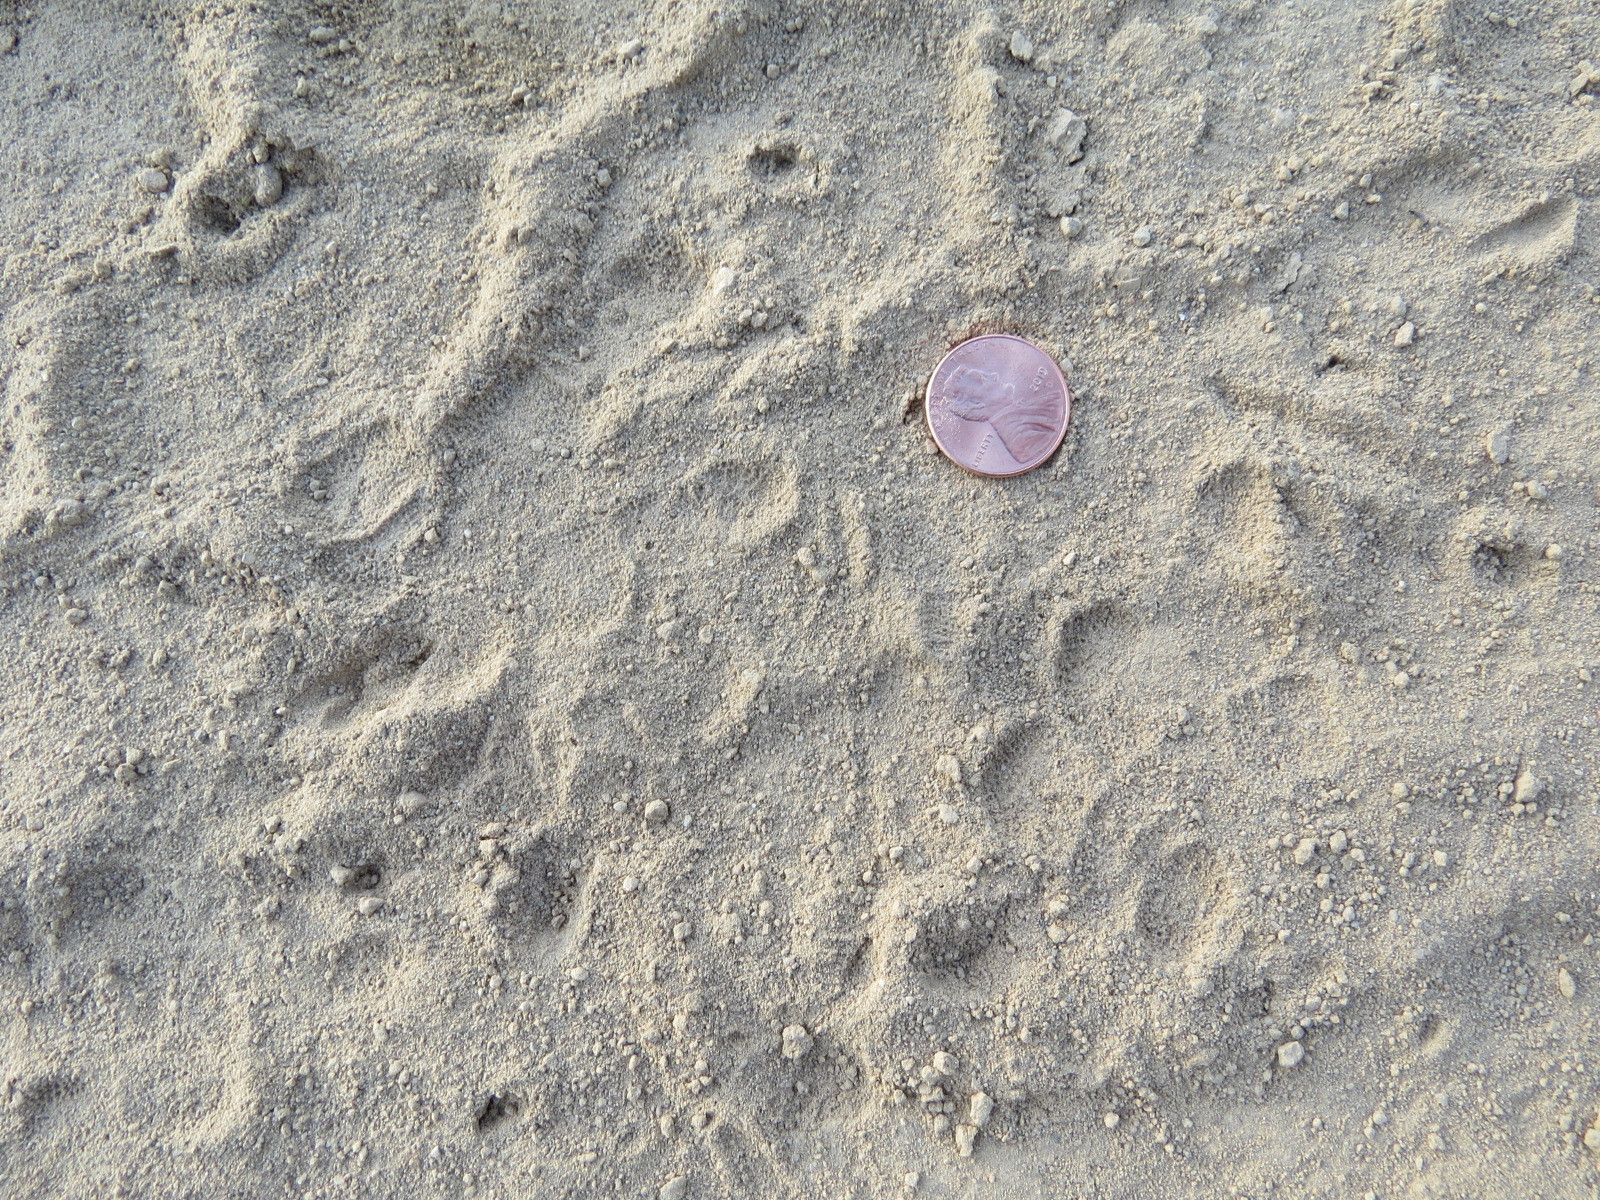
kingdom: Animalia
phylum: Chordata
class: Aves
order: Strigiformes
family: Strigidae
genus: Bubo
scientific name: Bubo virginianus
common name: Great horned owl
